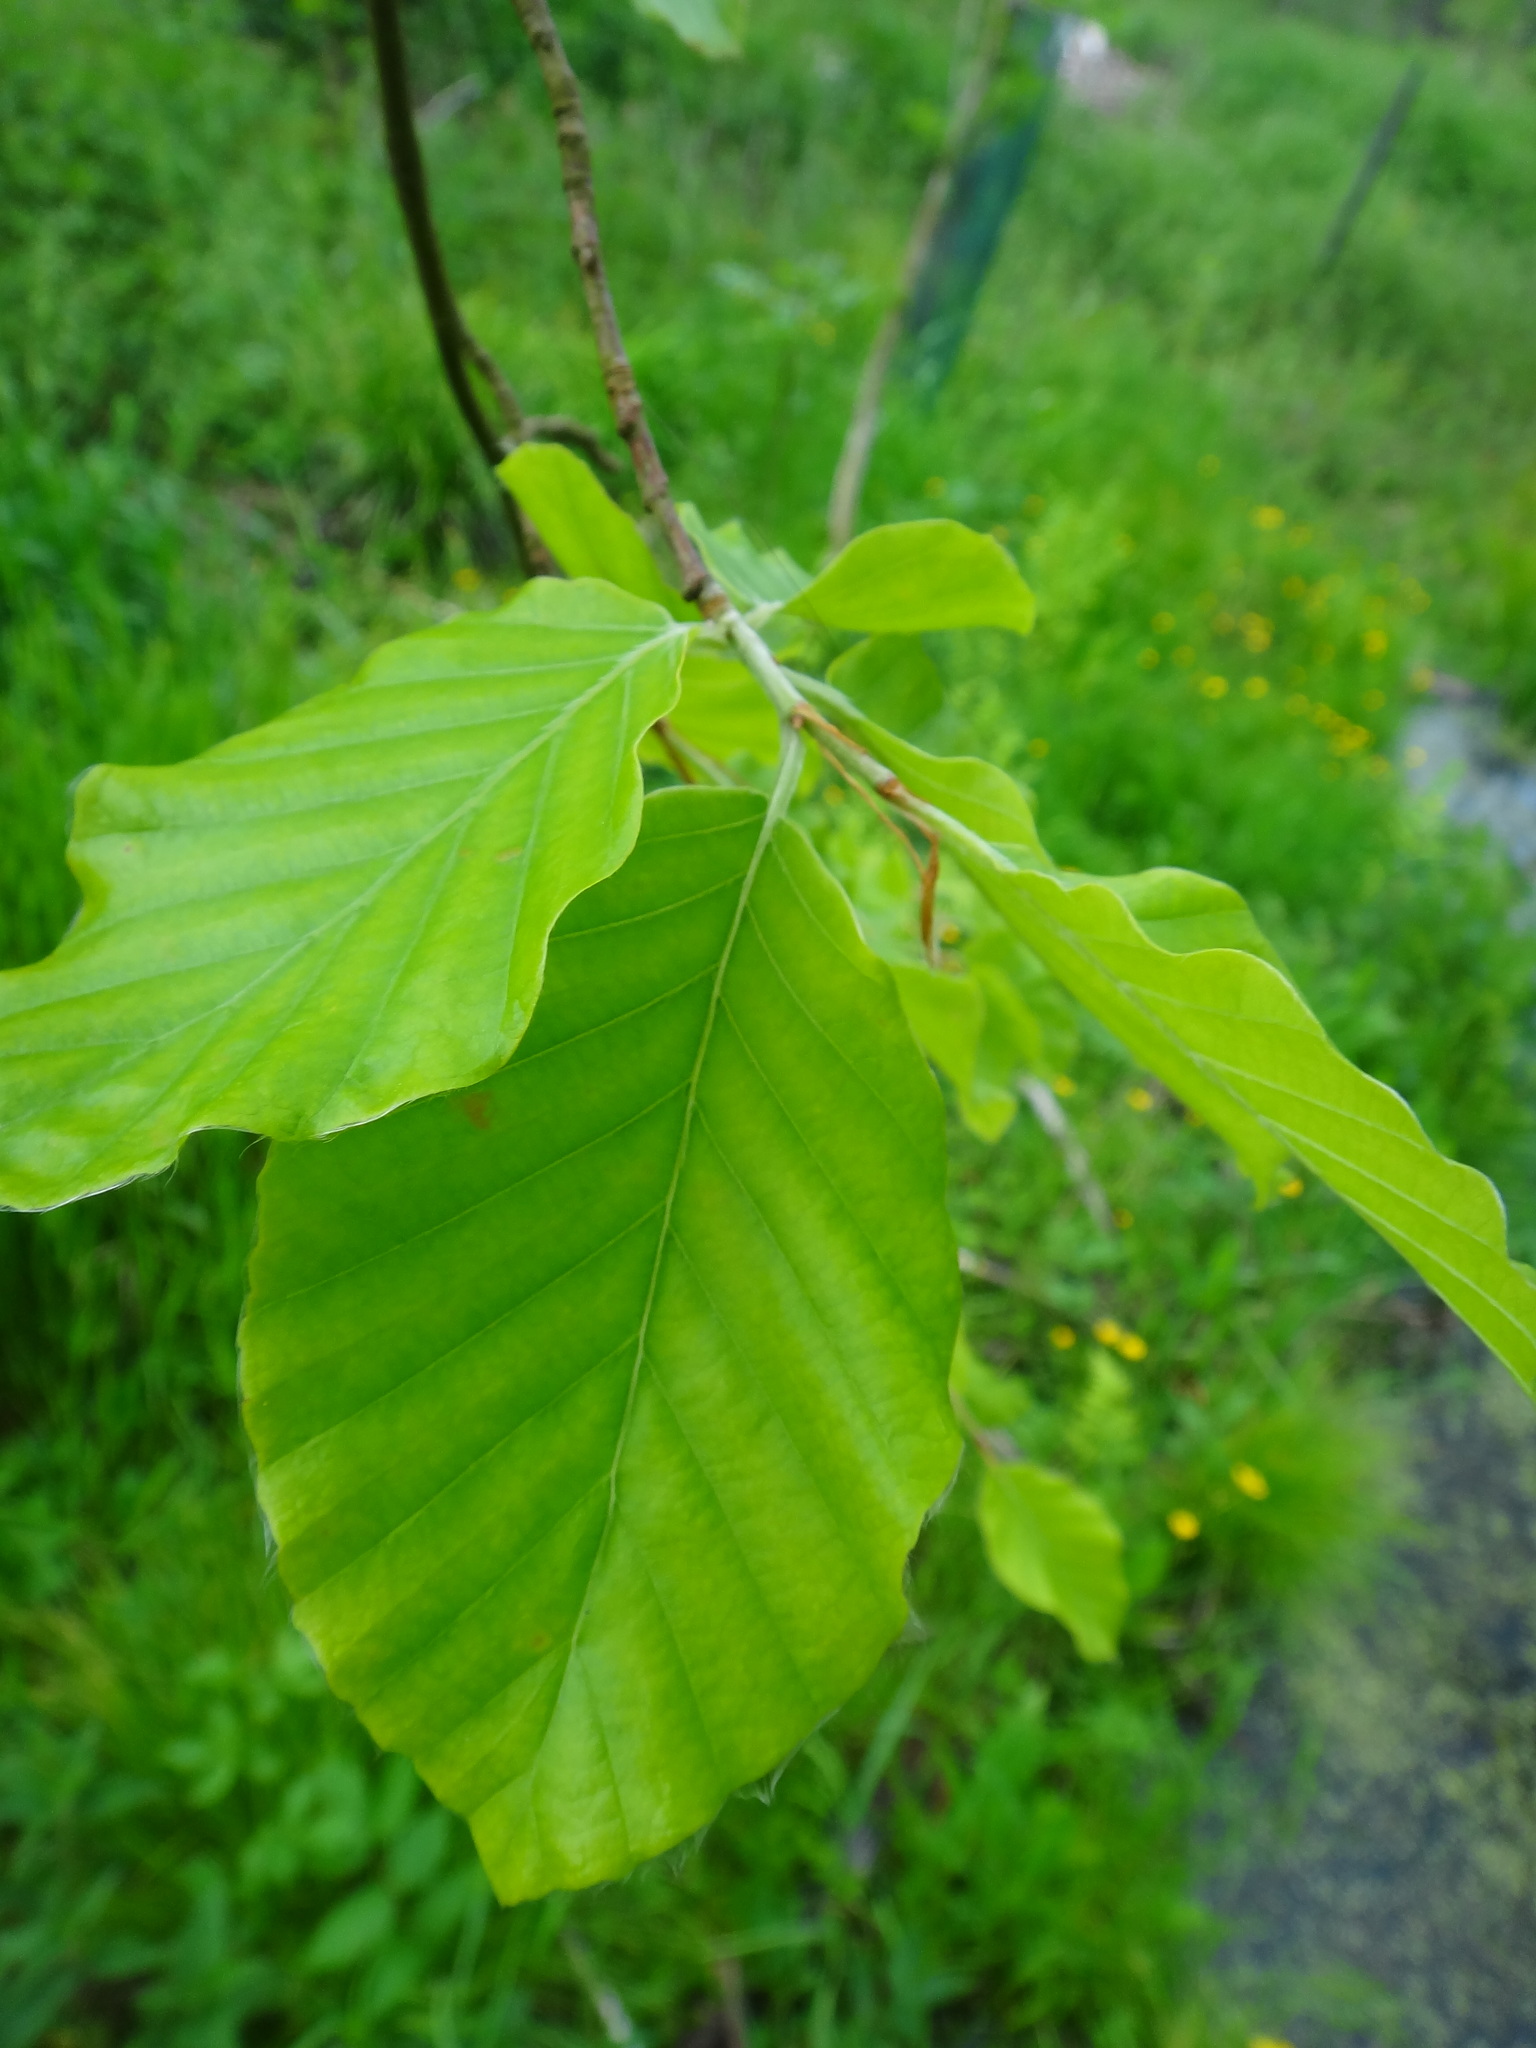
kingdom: Plantae
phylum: Tracheophyta
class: Magnoliopsida
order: Fagales
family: Fagaceae
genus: Fagus
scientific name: Fagus sylvatica
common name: Beech
